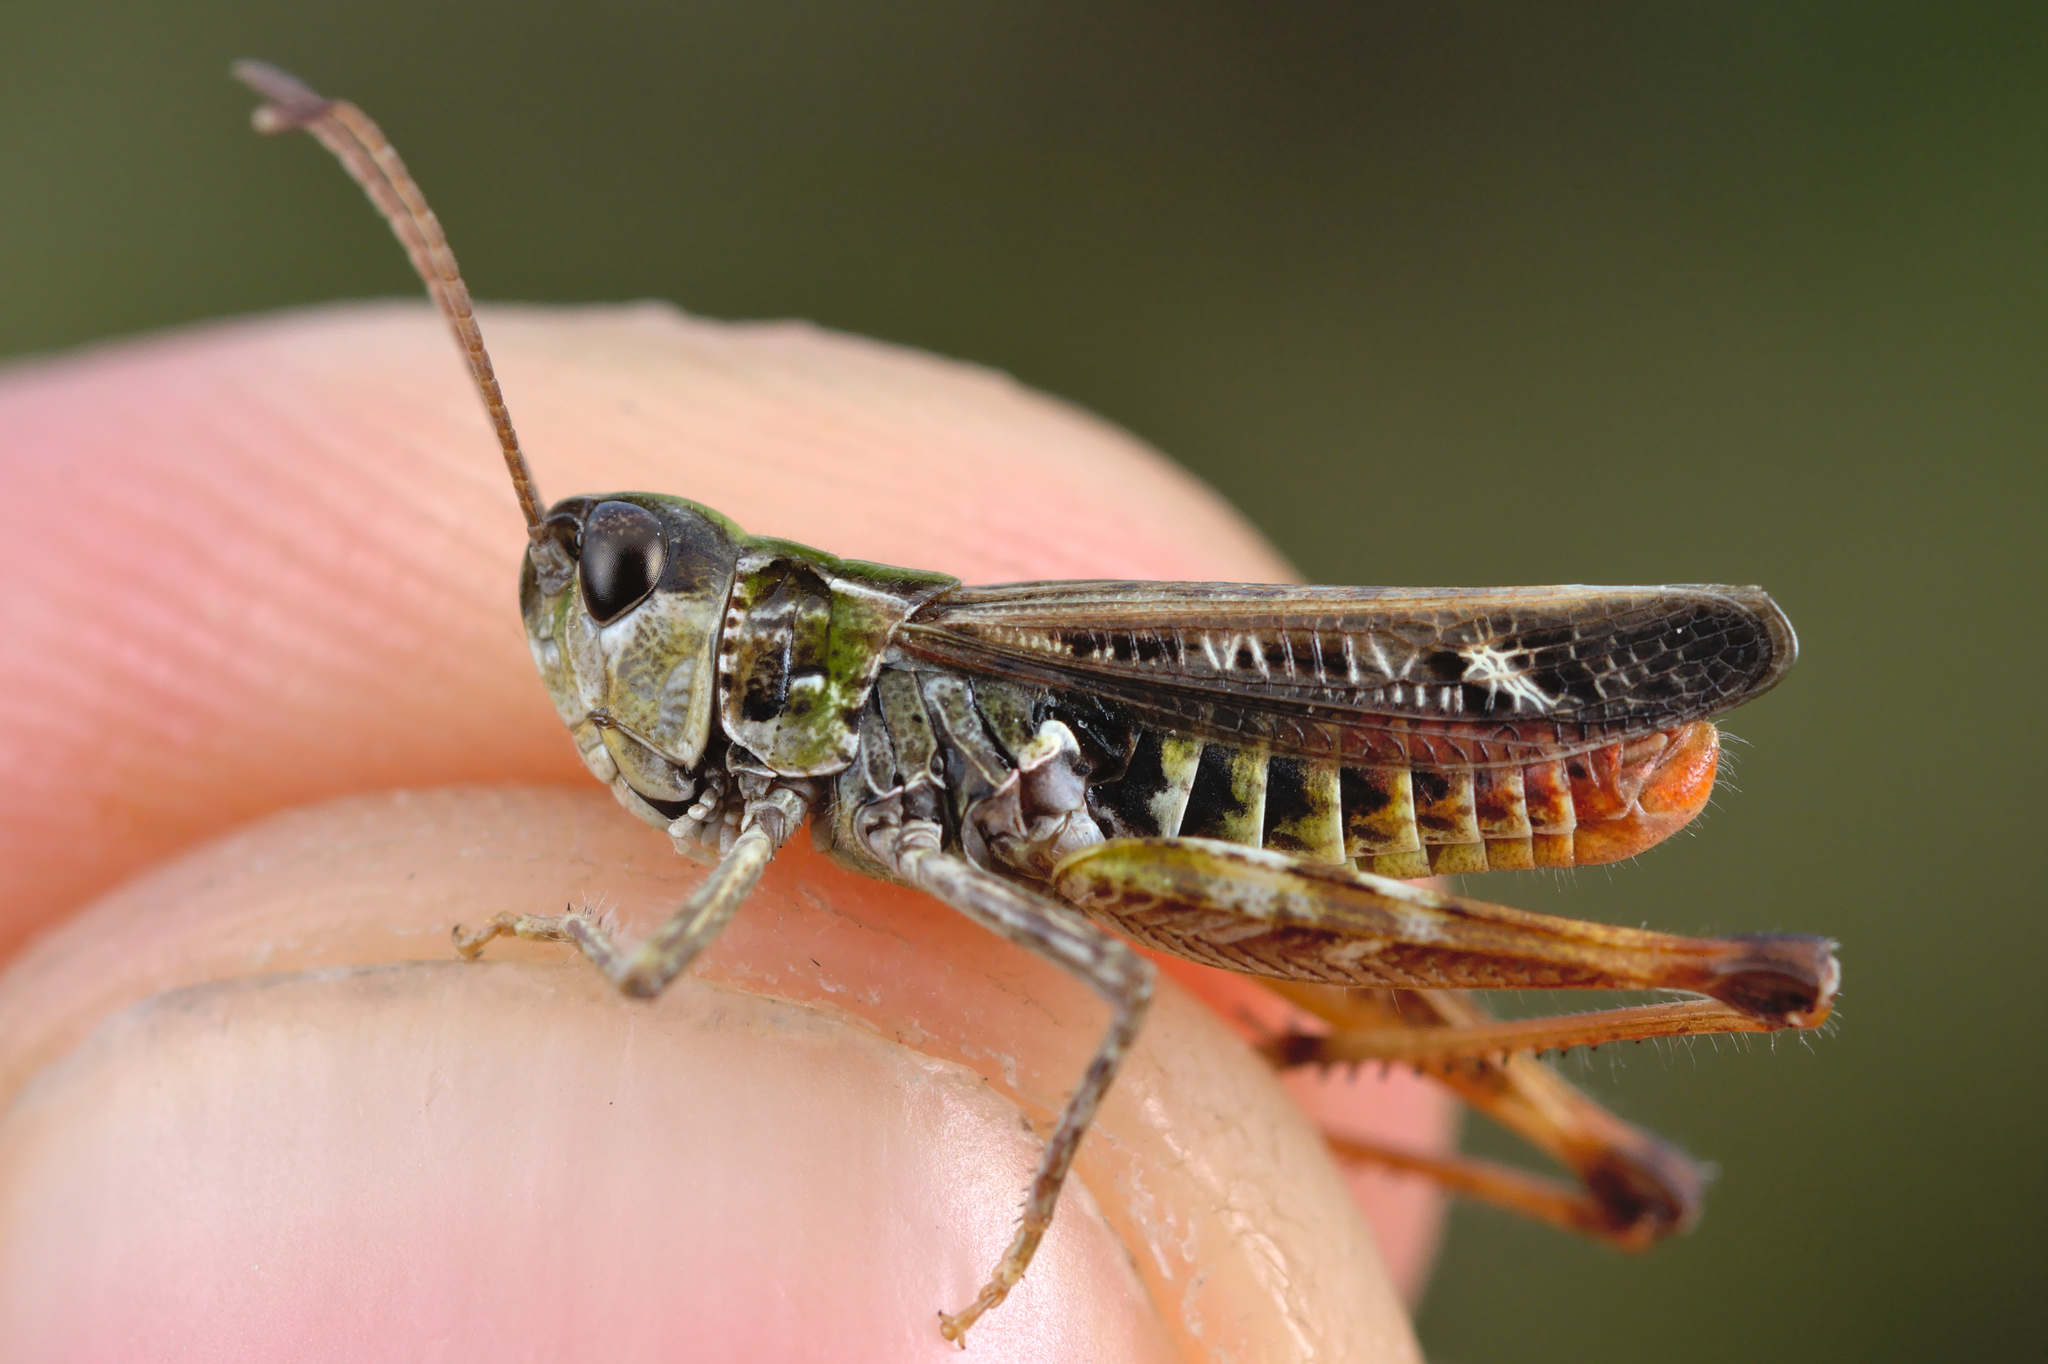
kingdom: Animalia
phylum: Arthropoda
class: Insecta
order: Orthoptera
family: Acrididae
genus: Myrmeleotettix
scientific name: Myrmeleotettix maculatus
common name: Mottled grasshopper
